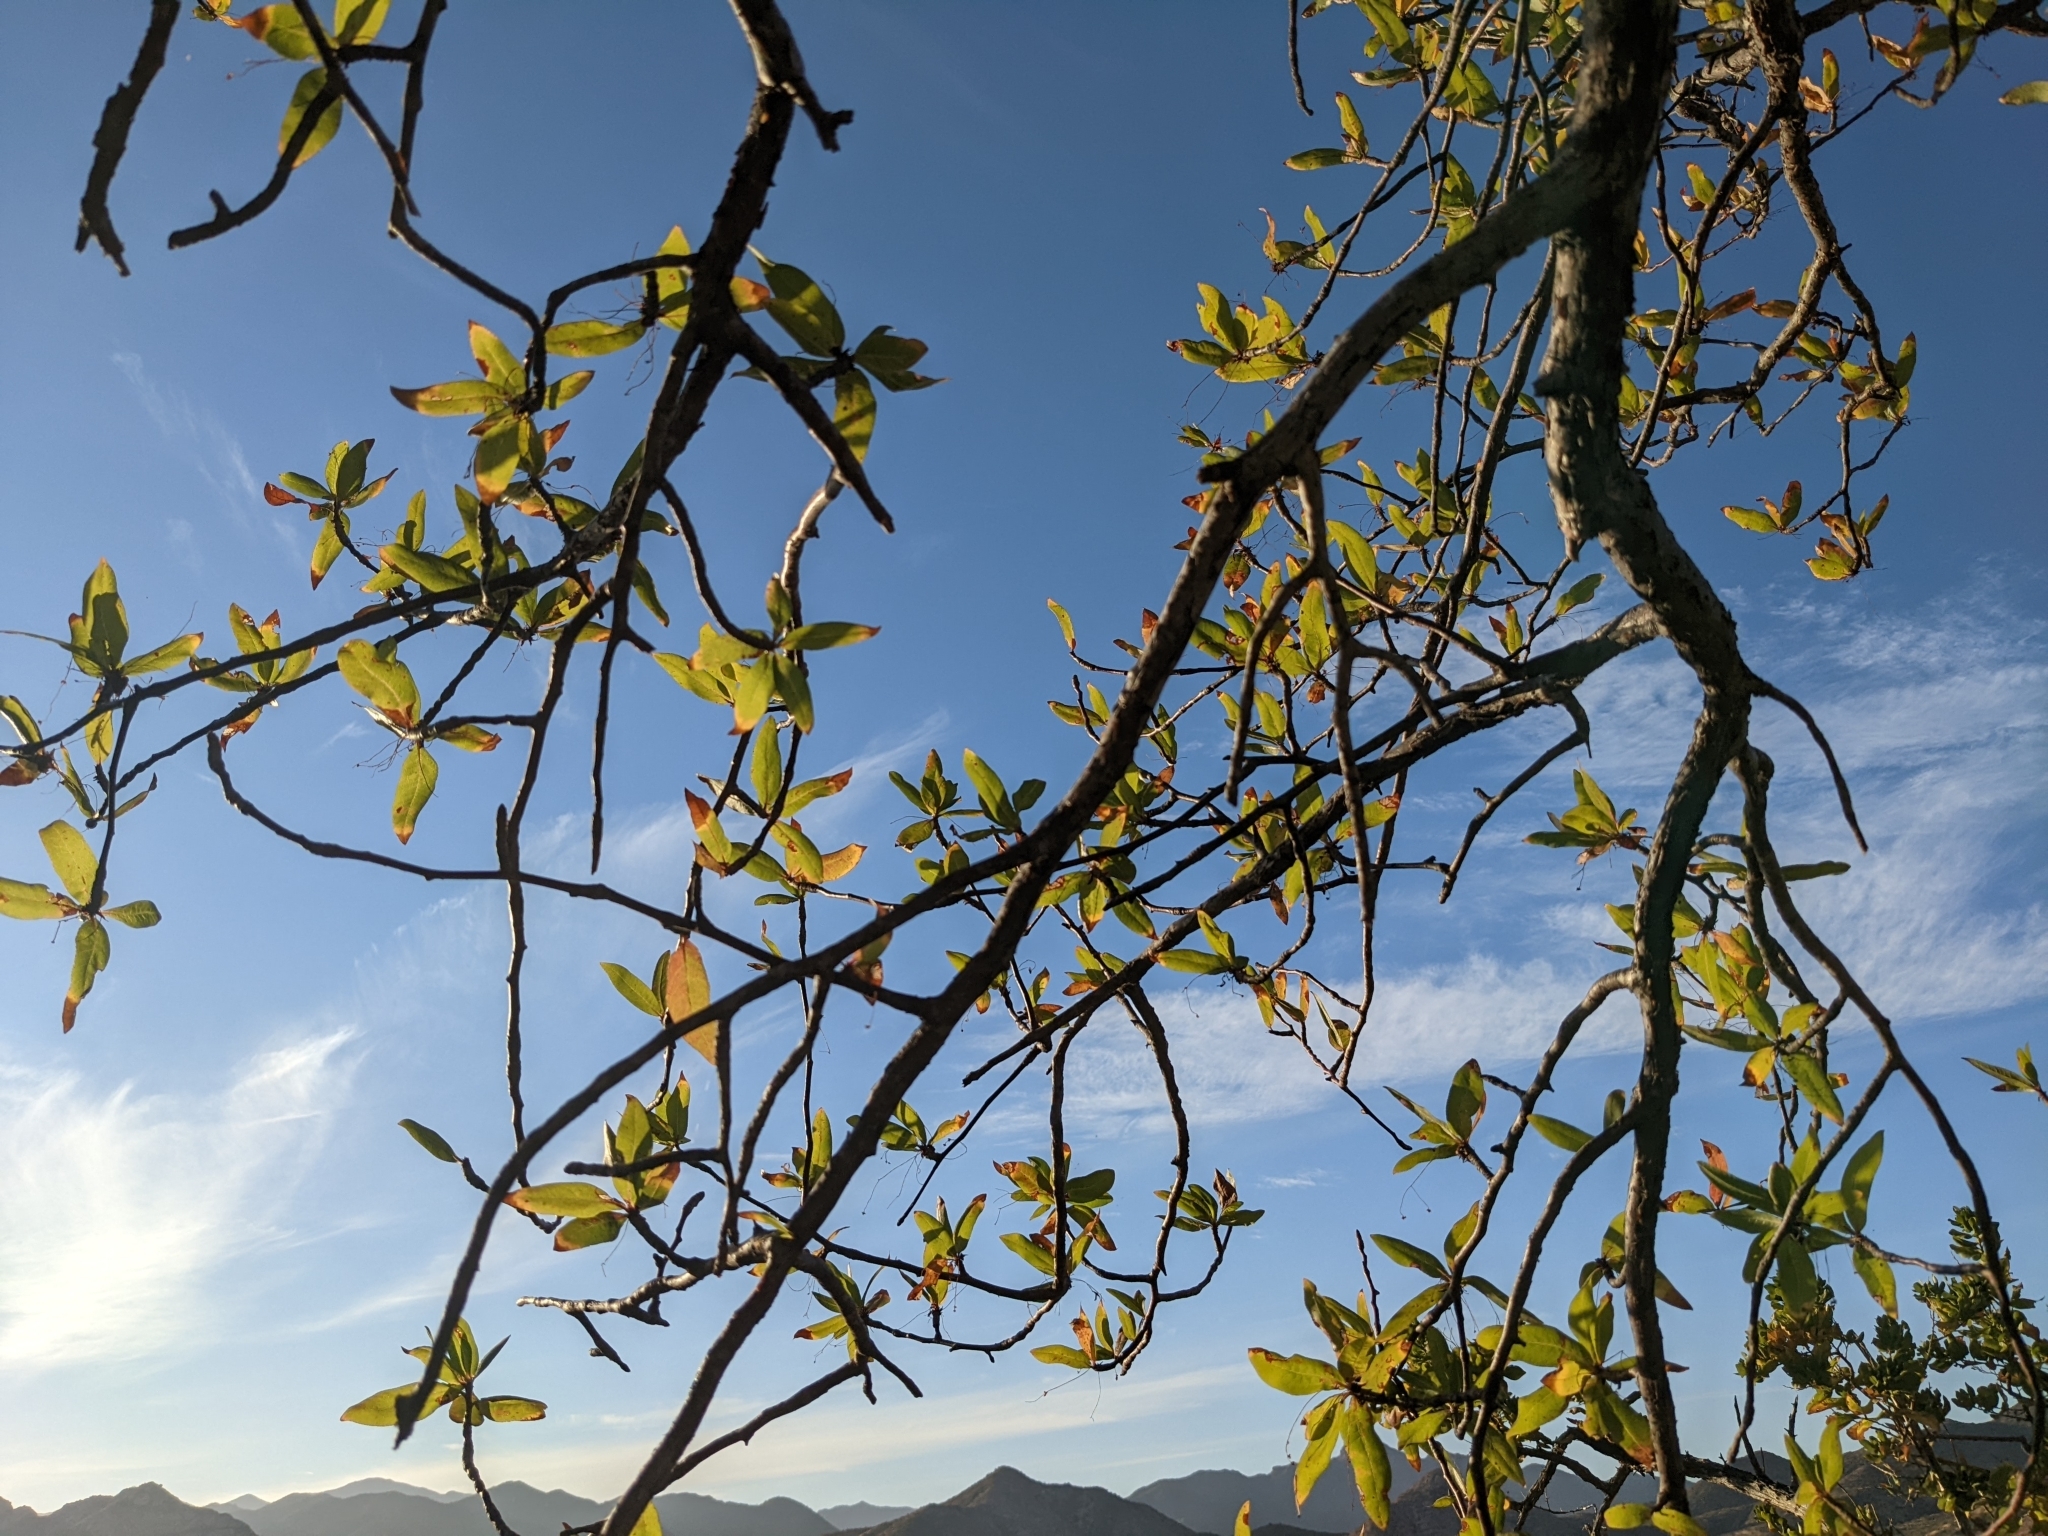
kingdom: Plantae
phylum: Tracheophyta
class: Magnoliopsida
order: Sapindales
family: Burseraceae
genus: Bursera
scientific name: Bursera cerasiifolia
